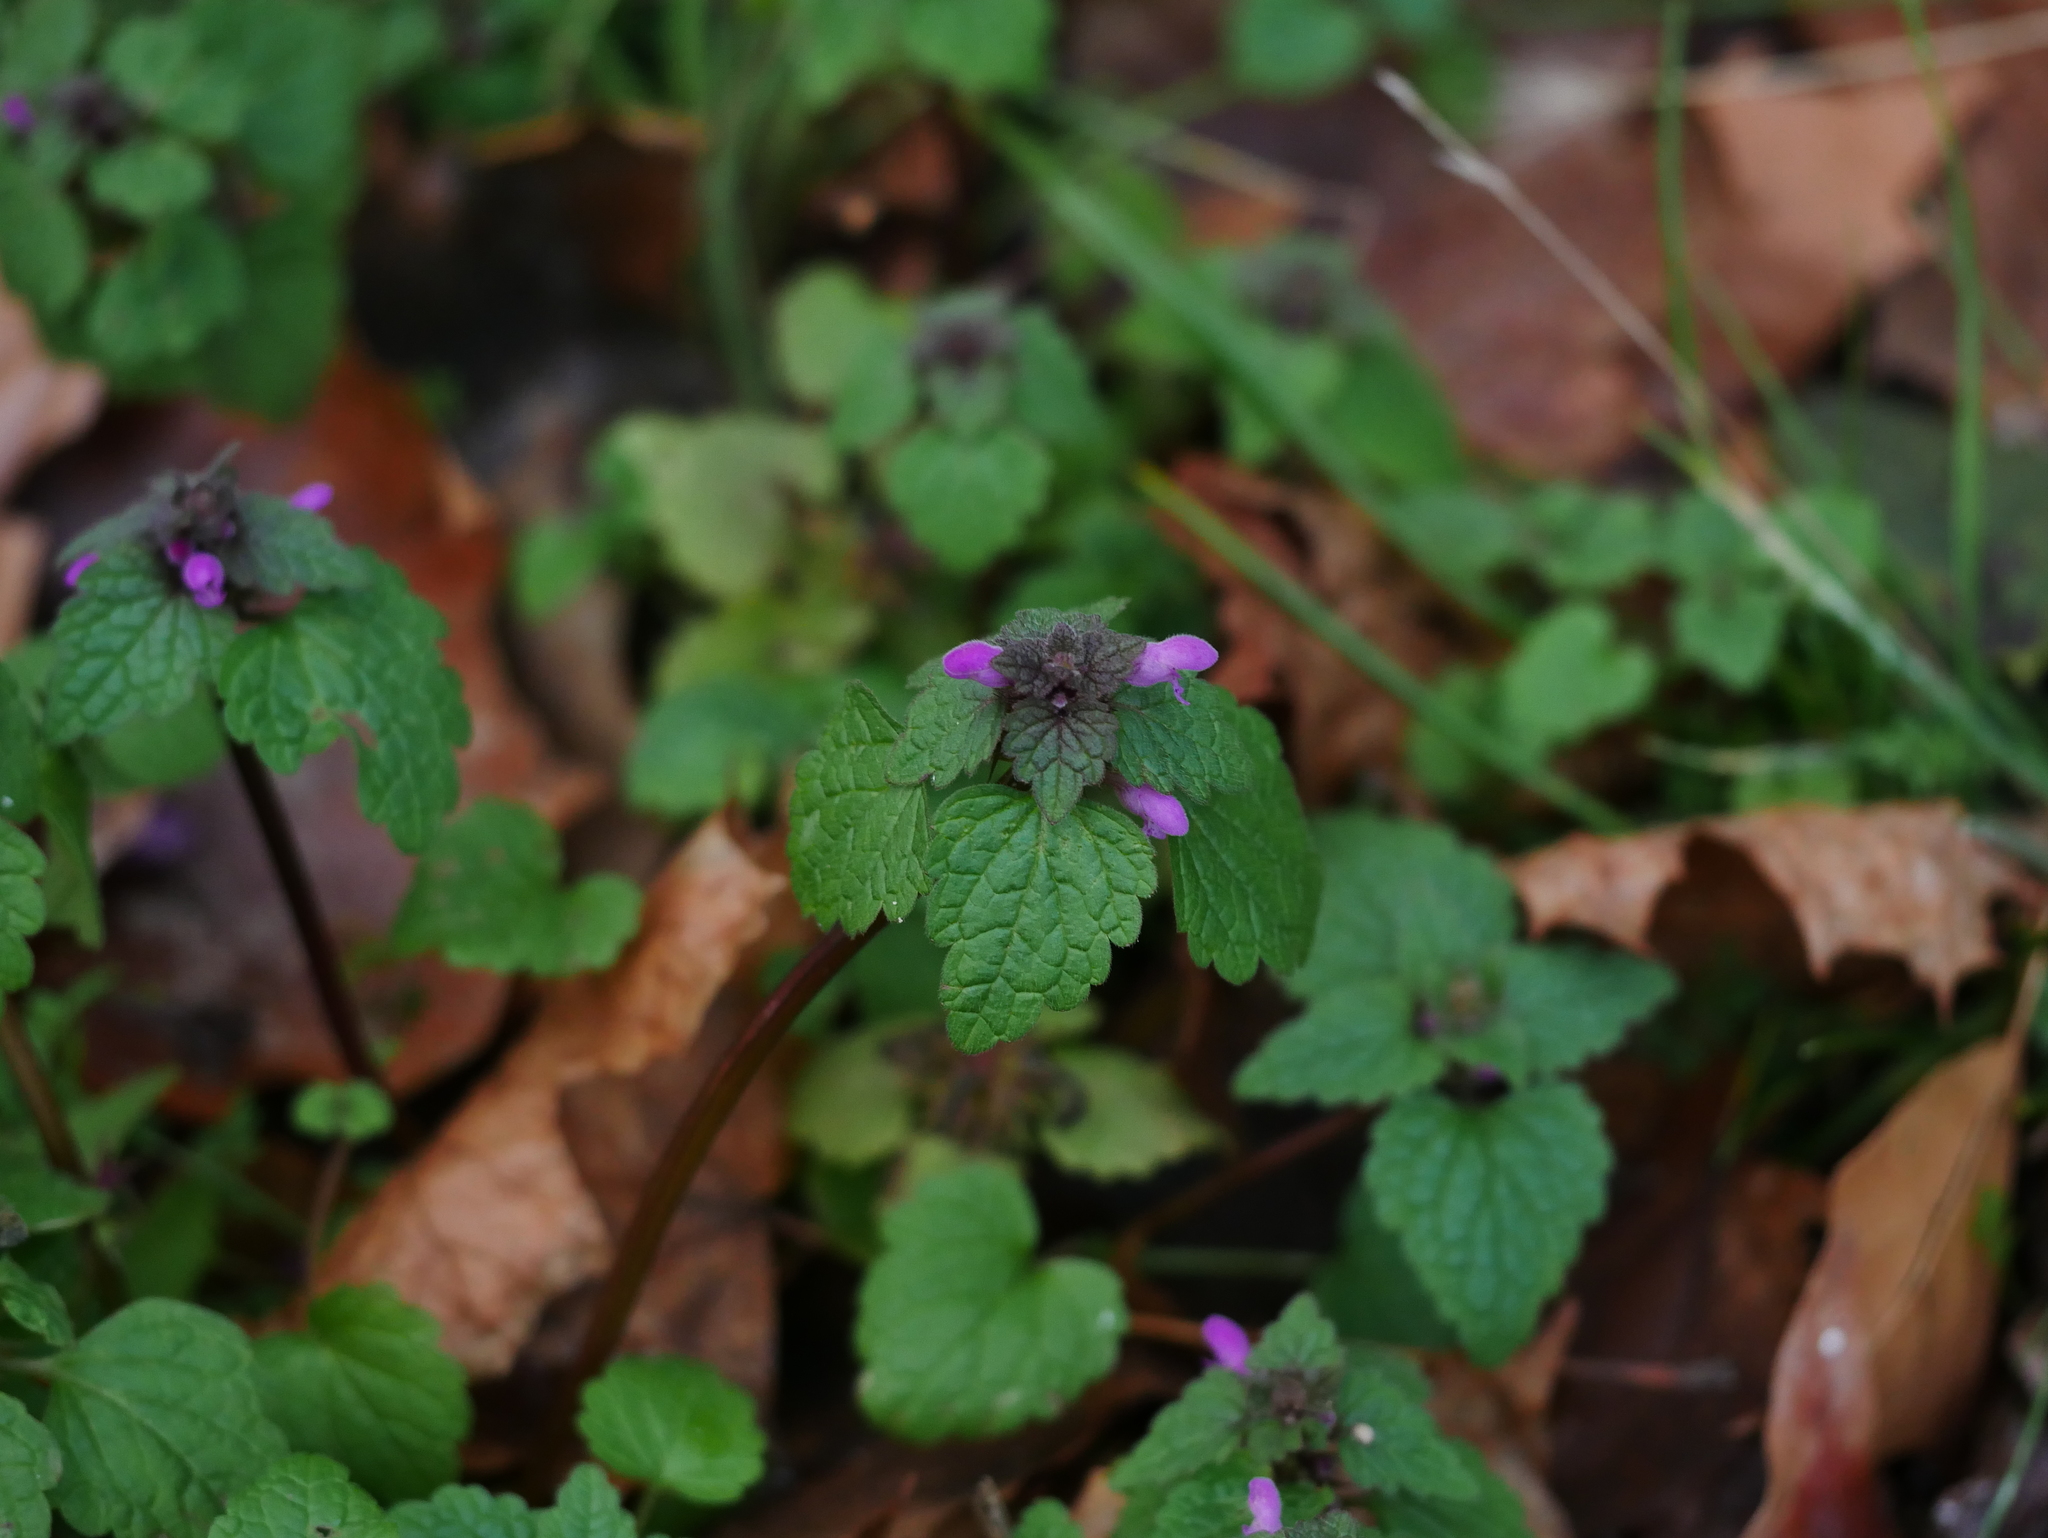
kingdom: Plantae
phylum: Tracheophyta
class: Magnoliopsida
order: Lamiales
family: Lamiaceae
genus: Lamium
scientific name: Lamium purpureum
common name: Red dead-nettle
